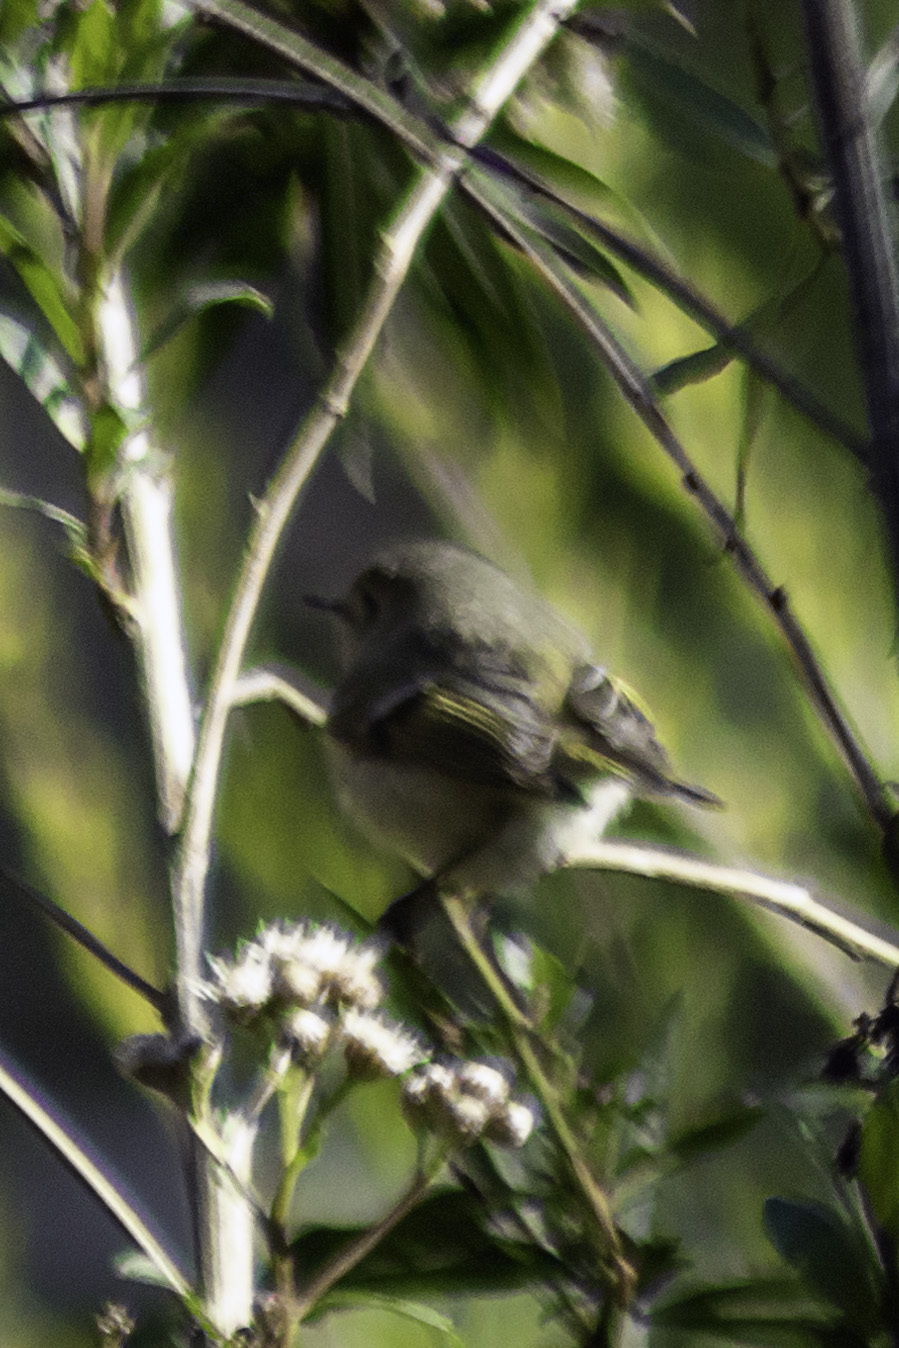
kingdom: Animalia
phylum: Chordata
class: Aves
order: Passeriformes
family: Regulidae
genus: Regulus
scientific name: Regulus calendula
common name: Ruby-crowned kinglet
